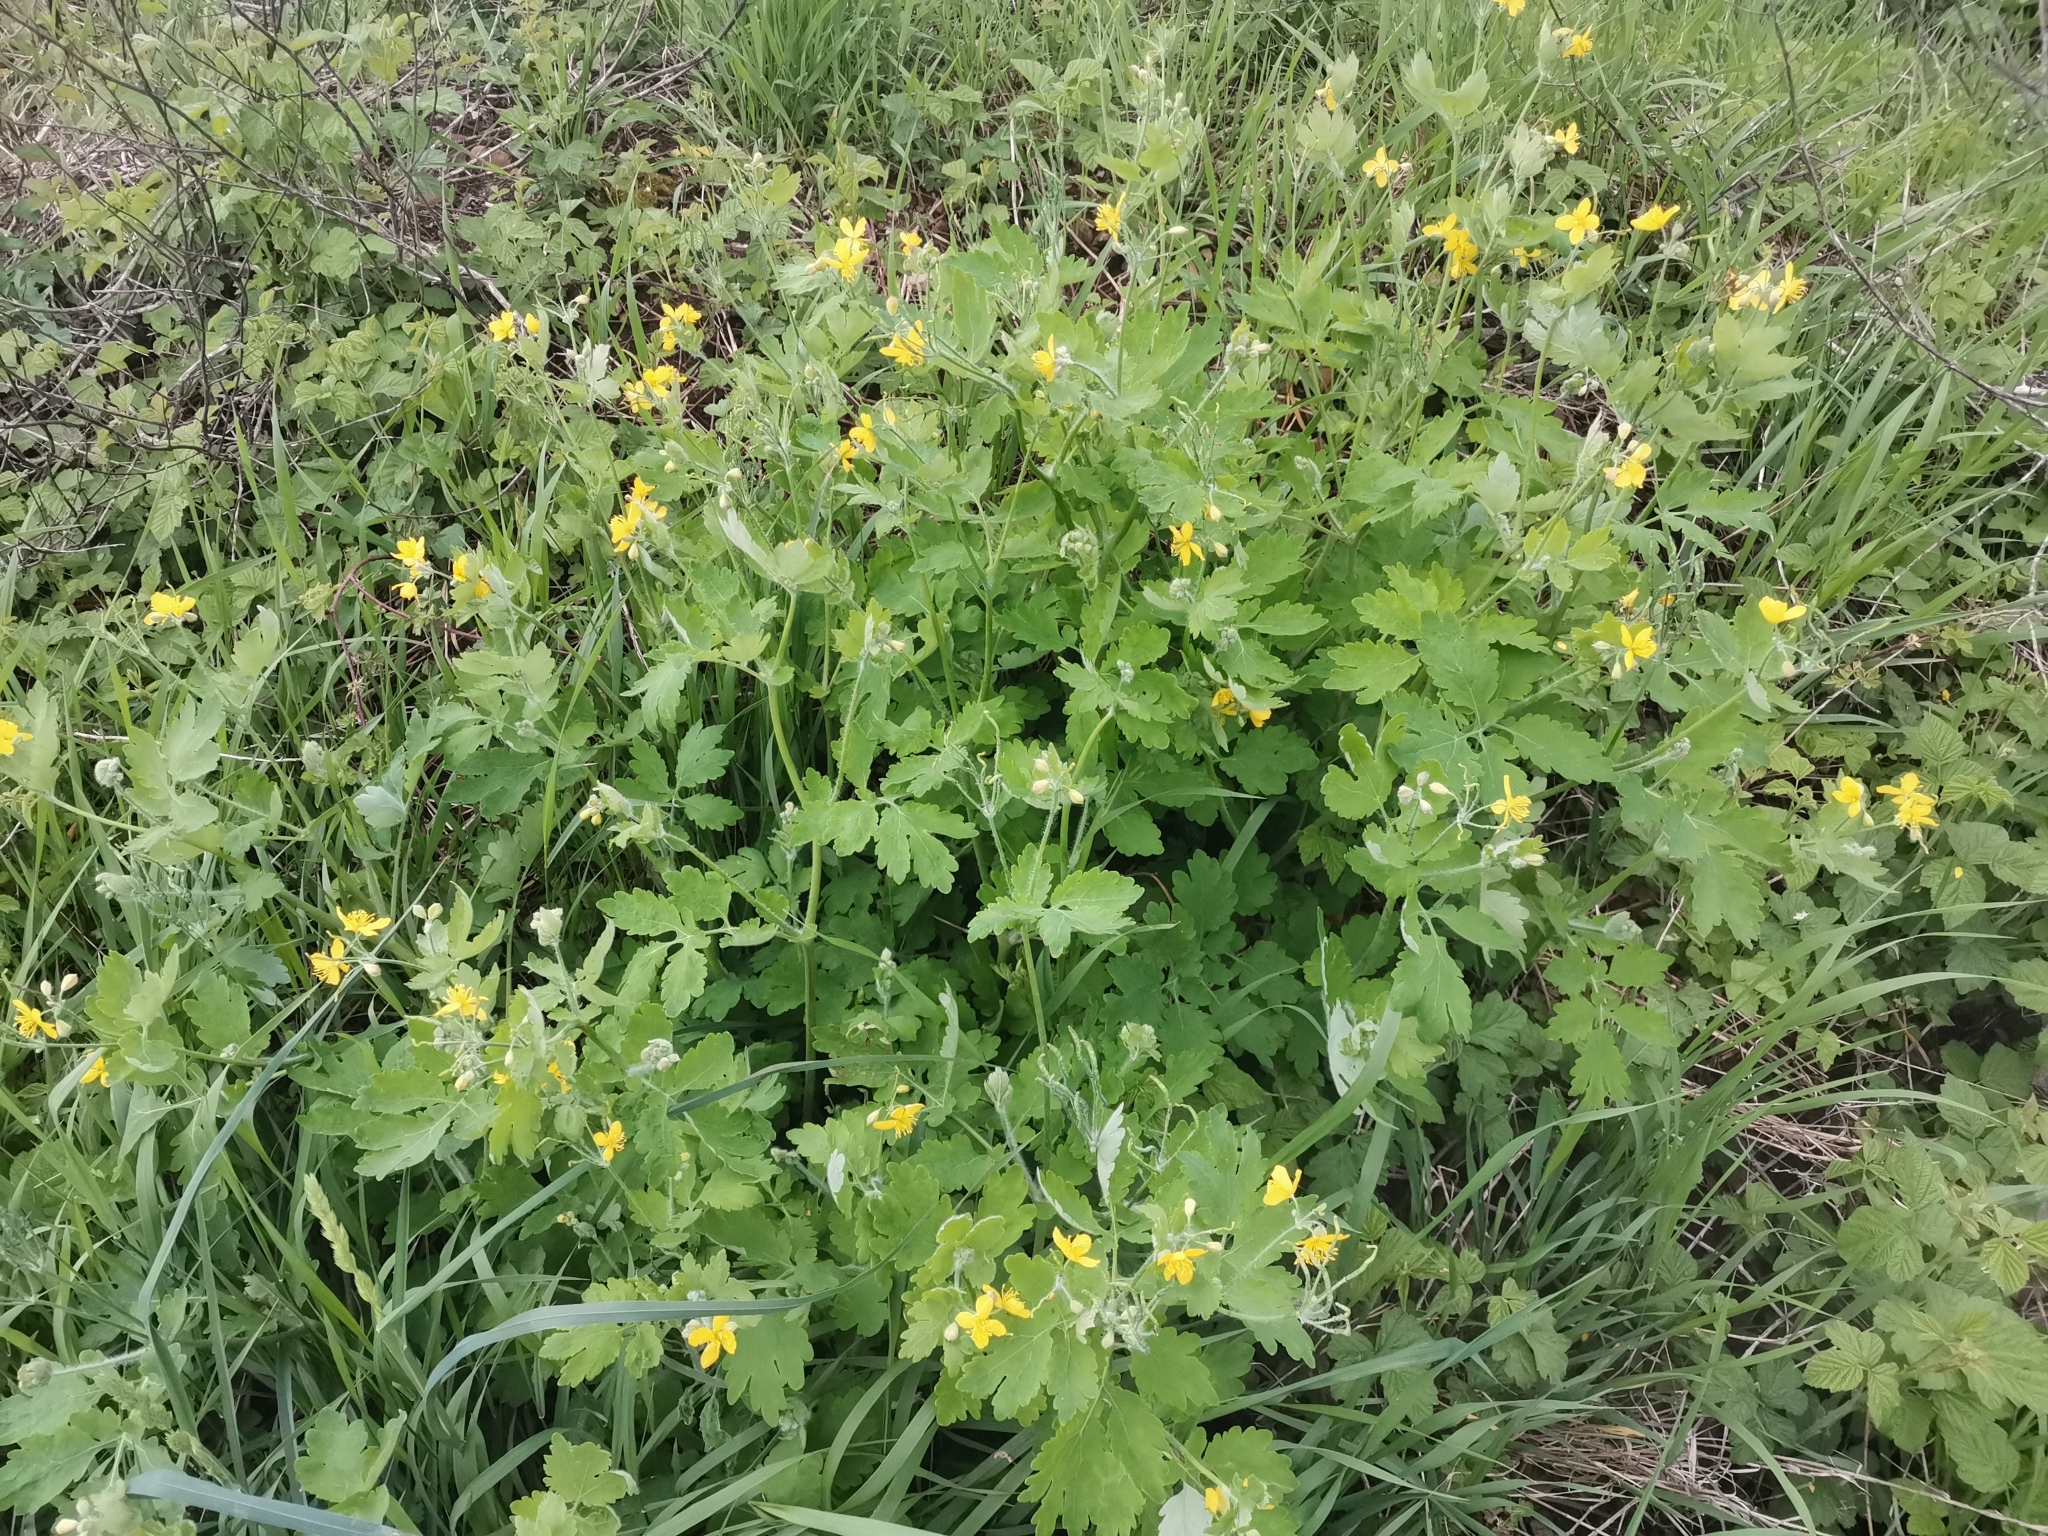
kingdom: Plantae
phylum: Tracheophyta
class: Magnoliopsida
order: Ranunculales
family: Papaveraceae
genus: Chelidonium
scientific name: Chelidonium majus
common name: Greater celandine
